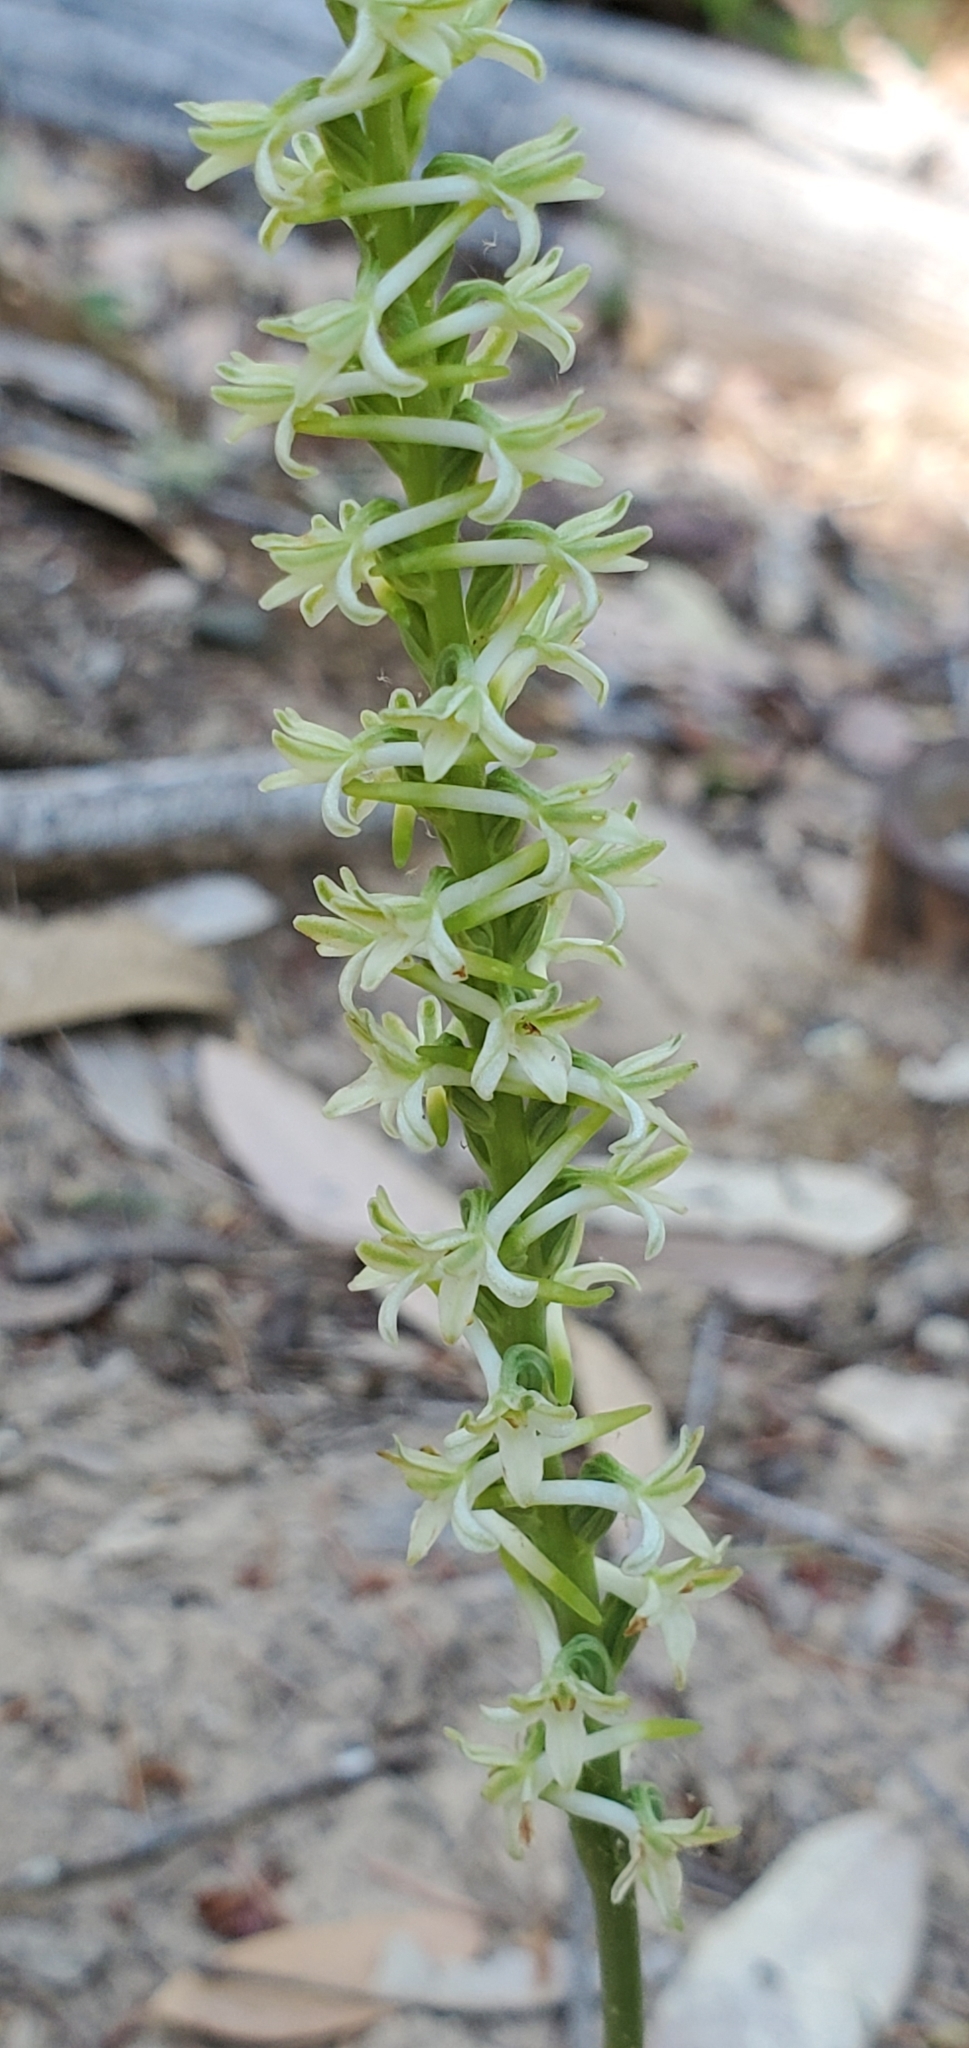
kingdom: Plantae
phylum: Tracheophyta
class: Liliopsida
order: Asparagales
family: Orchidaceae
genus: Platanthera
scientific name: Platanthera transversa
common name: Royal rein orchid
